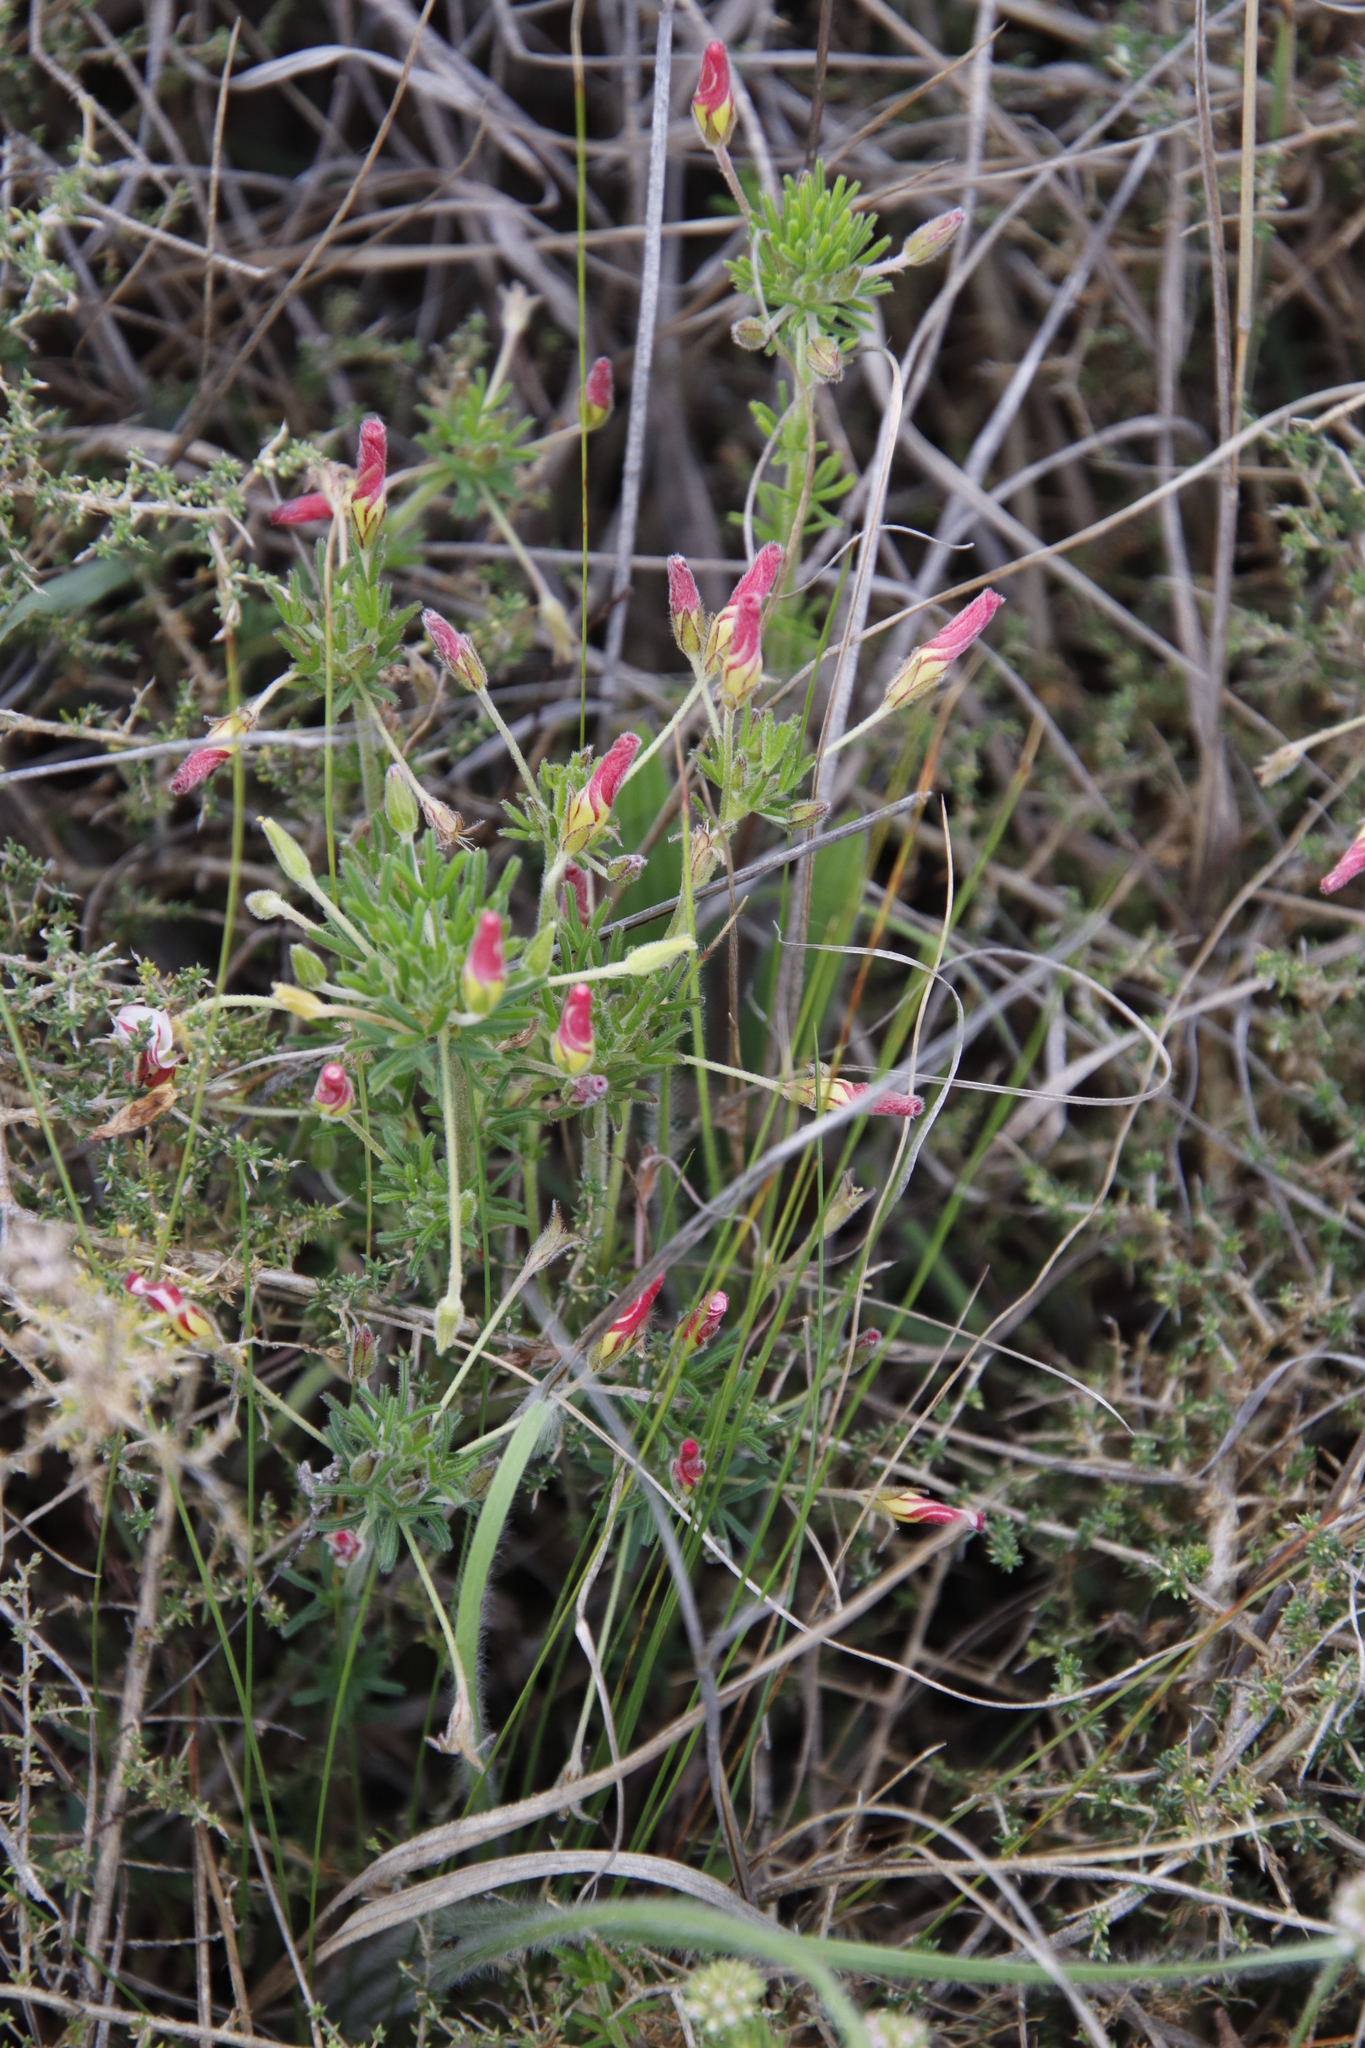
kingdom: Plantae
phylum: Tracheophyta
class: Magnoliopsida
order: Oxalidales
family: Oxalidaceae
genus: Oxalis
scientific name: Oxalis tenuifolia
